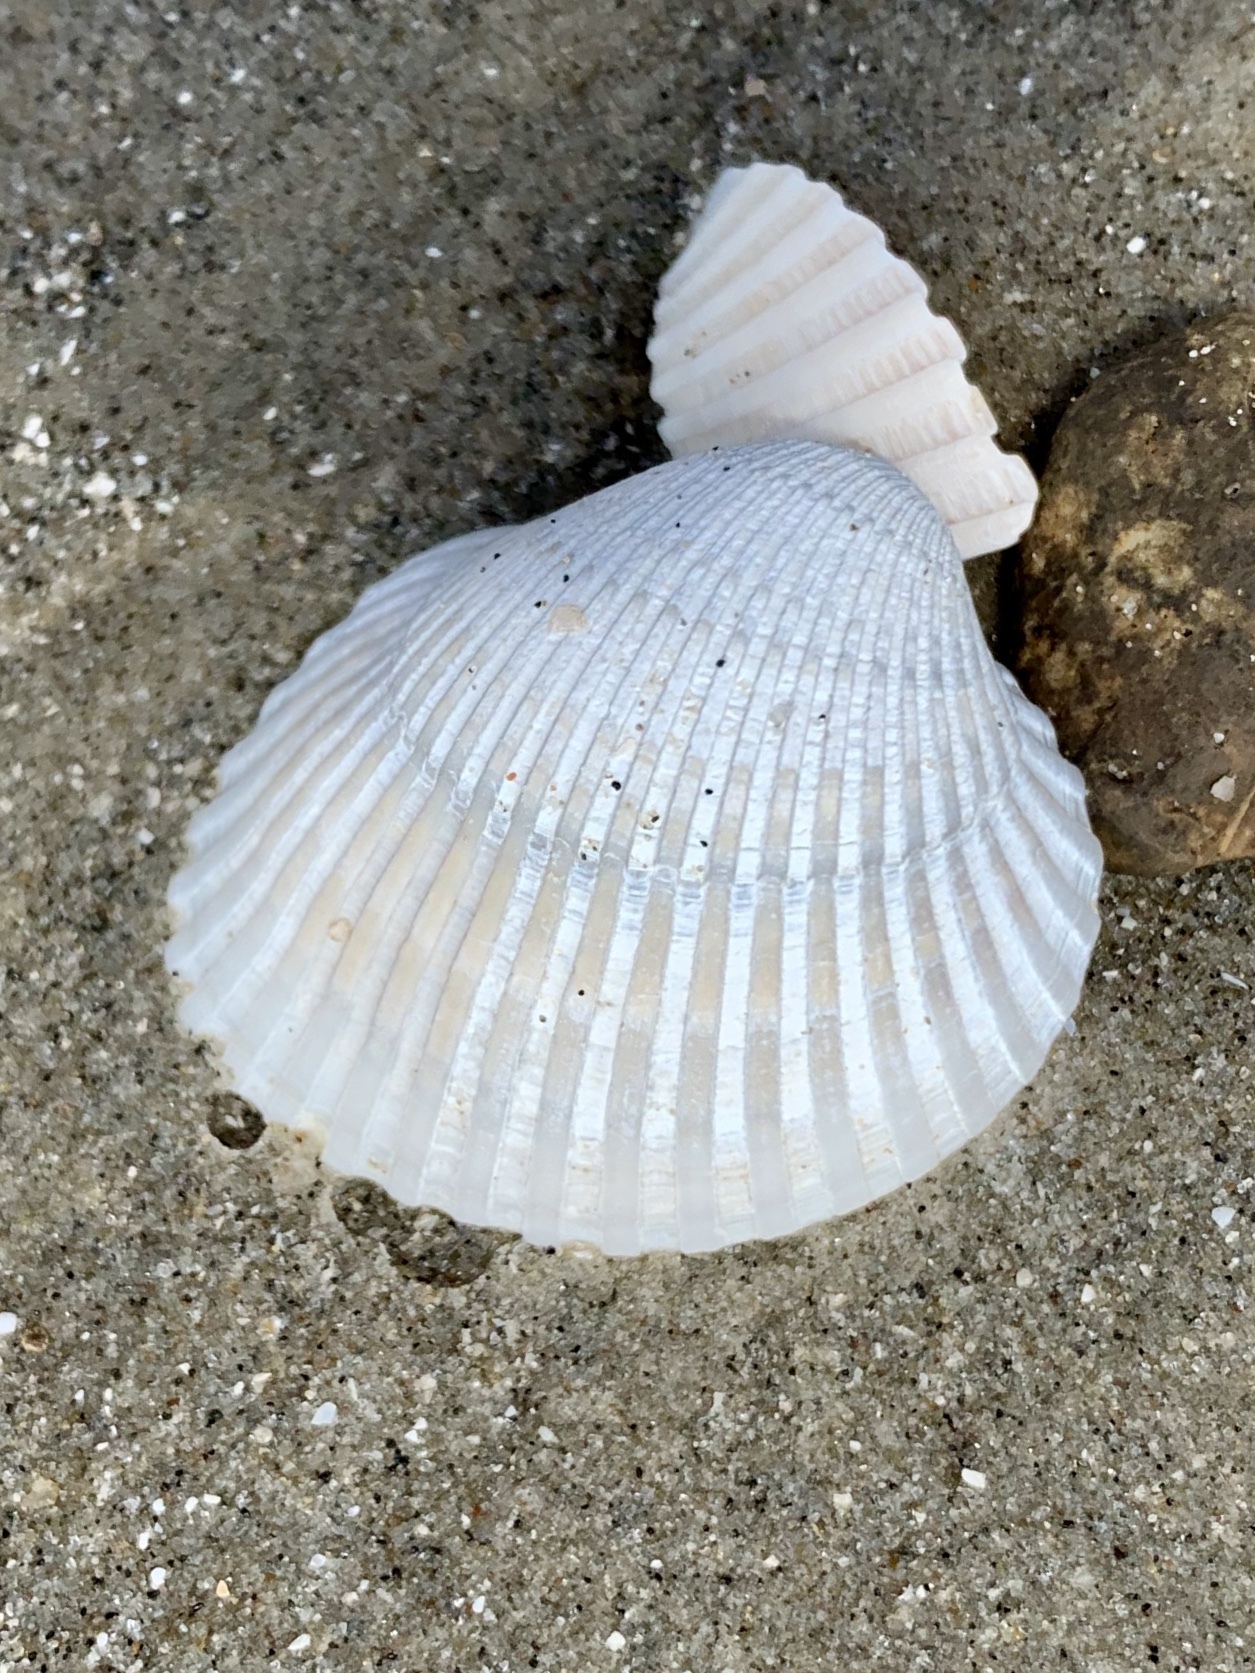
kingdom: Animalia
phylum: Mollusca
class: Bivalvia
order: Arcida
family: Arcidae
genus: Lunarca
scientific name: Lunarca ovalis
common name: Blood ark
